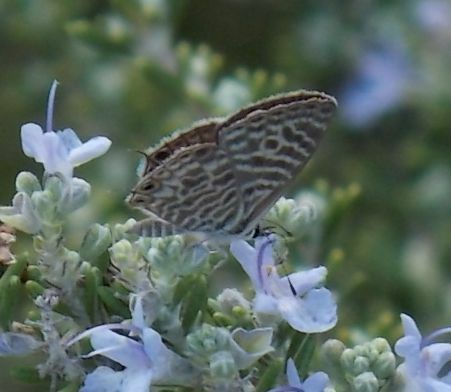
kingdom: Animalia
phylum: Arthropoda
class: Insecta
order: Lepidoptera
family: Lycaenidae
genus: Leptotes
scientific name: Leptotes pirithous
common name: Lang's short-tailed blue
